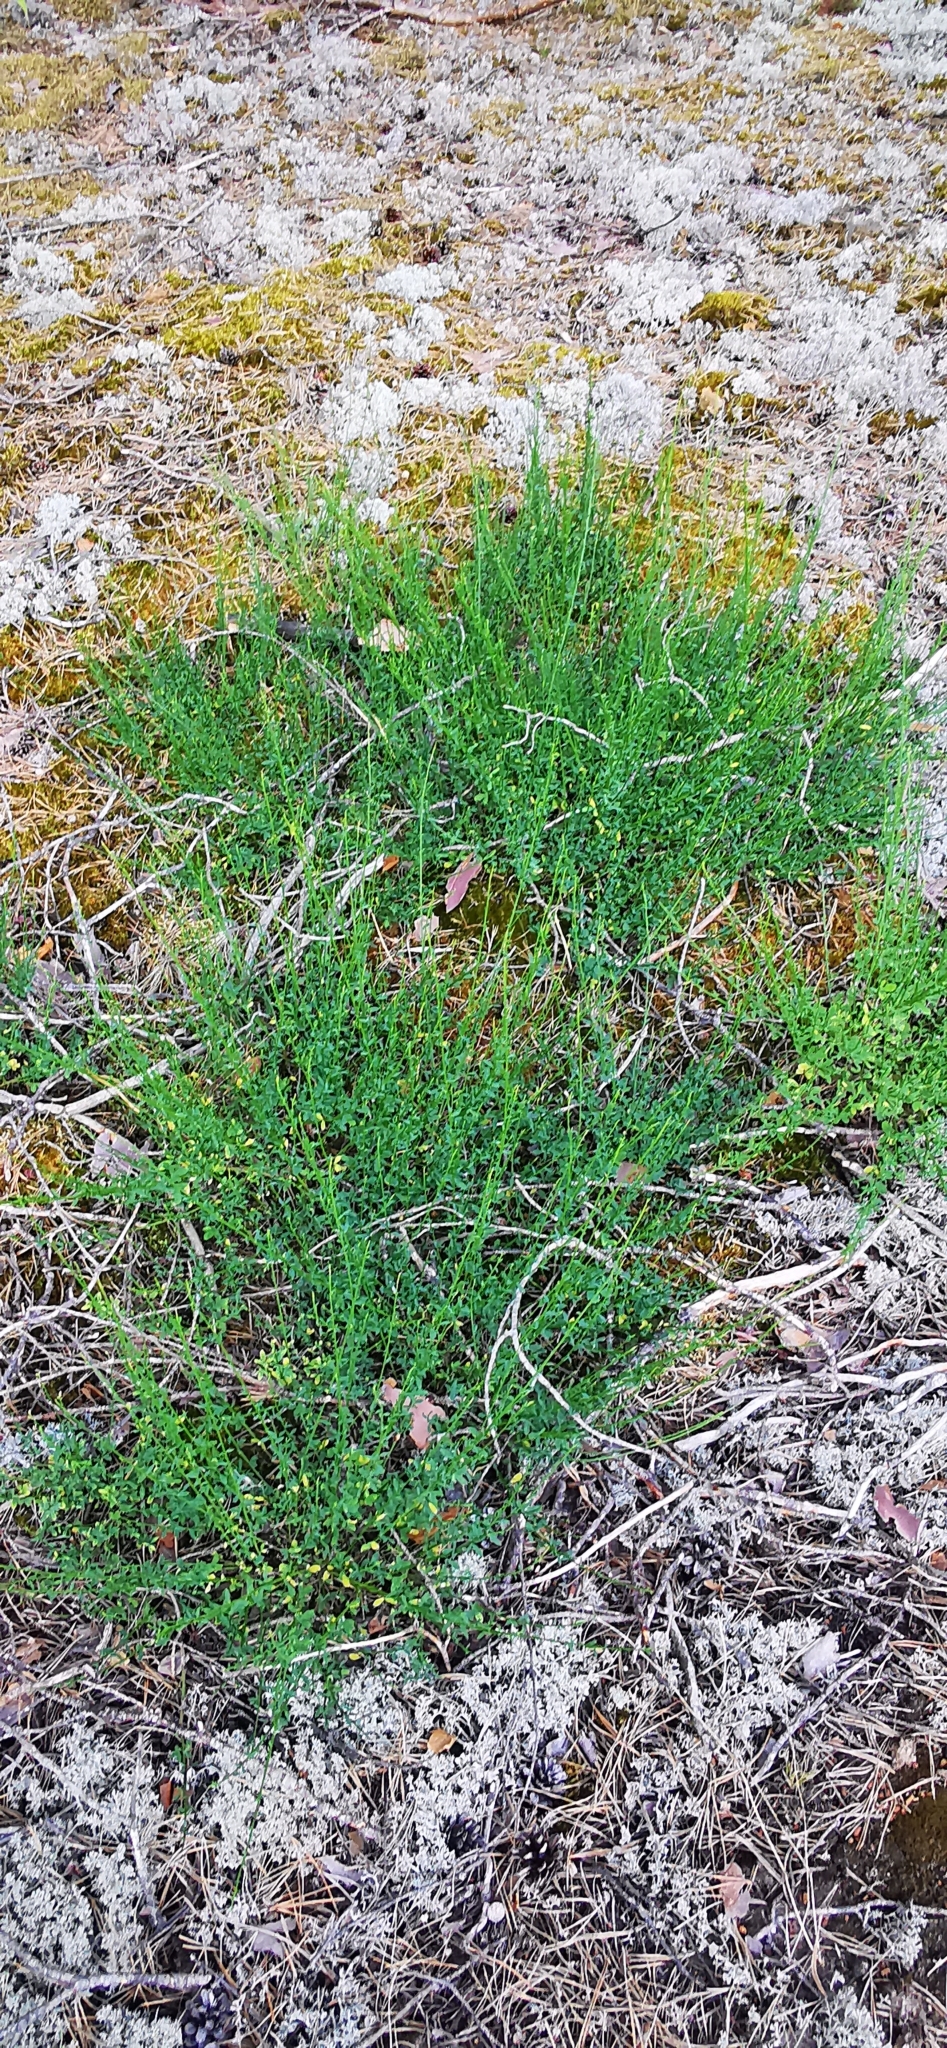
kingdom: Plantae
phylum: Tracheophyta
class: Magnoliopsida
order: Fabales
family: Fabaceae
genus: Cytisus
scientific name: Cytisus scoparius
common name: Scotch broom
